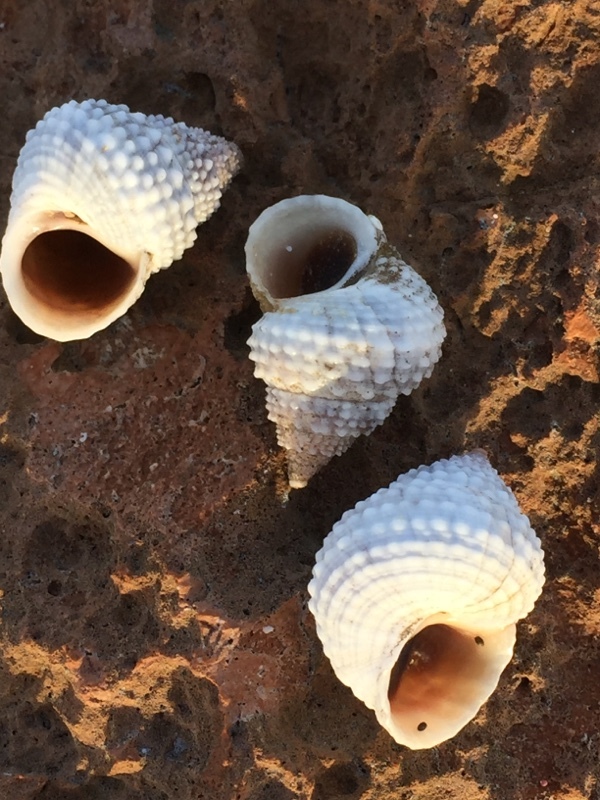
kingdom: Animalia
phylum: Mollusca
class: Gastropoda
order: Littorinimorpha
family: Littorinidae
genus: Cenchritis
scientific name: Cenchritis muricatus
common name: Beaded periwinkle
